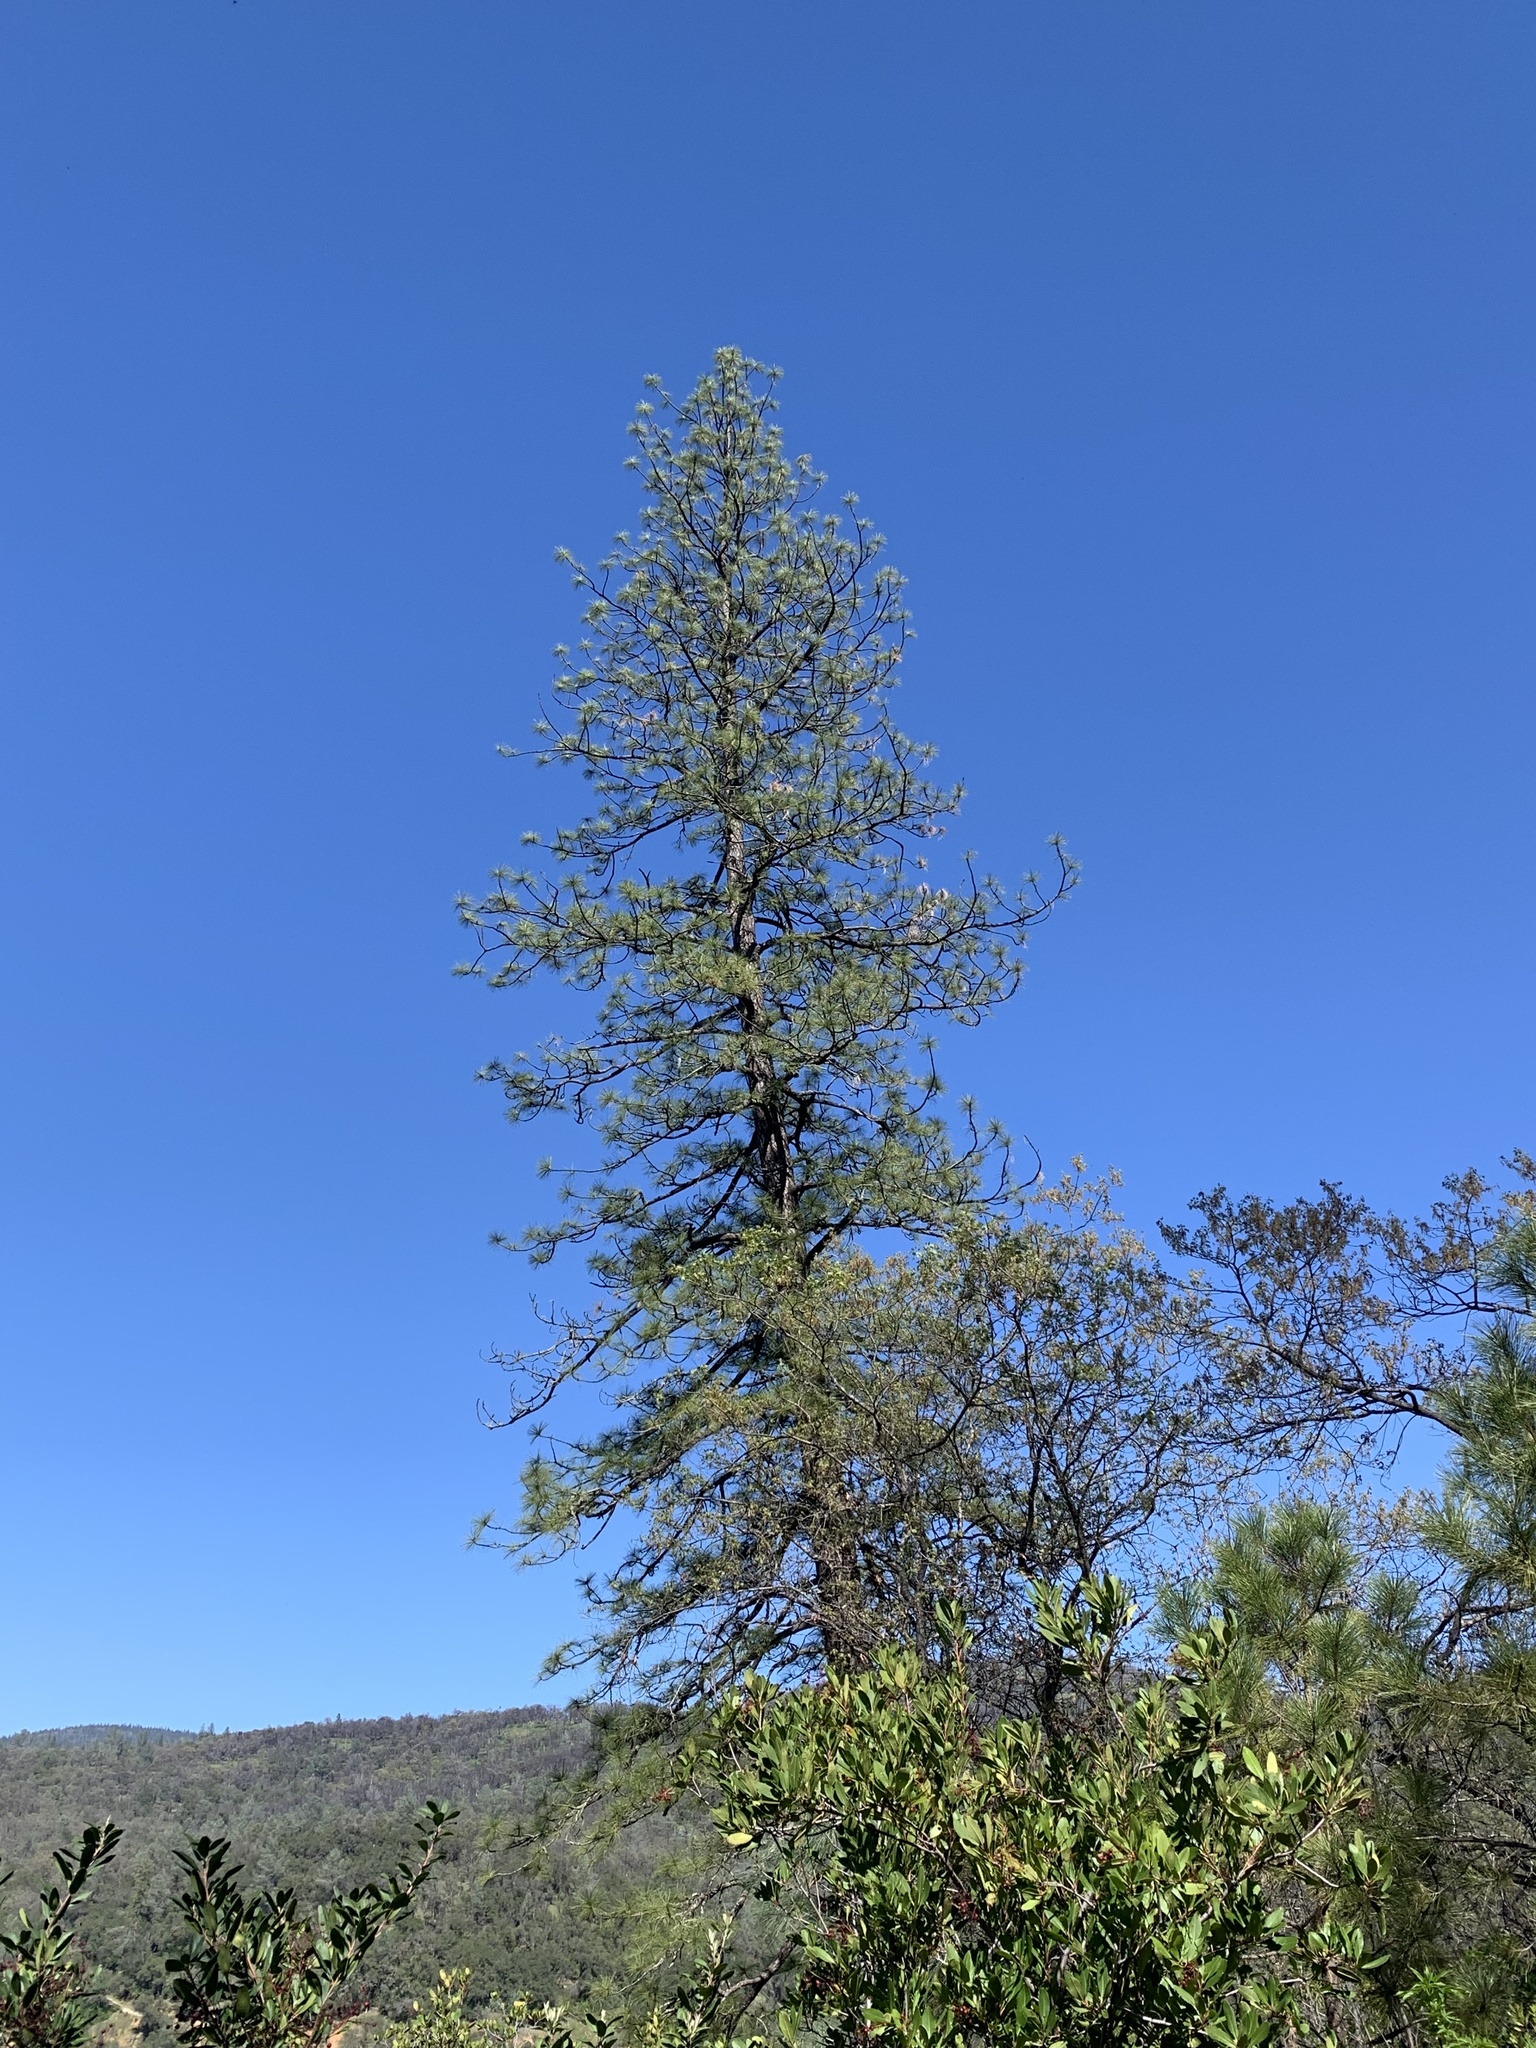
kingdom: Plantae
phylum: Tracheophyta
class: Pinopsida
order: Pinales
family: Pinaceae
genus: Pinus
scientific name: Pinus ponderosa
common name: Western yellow-pine
